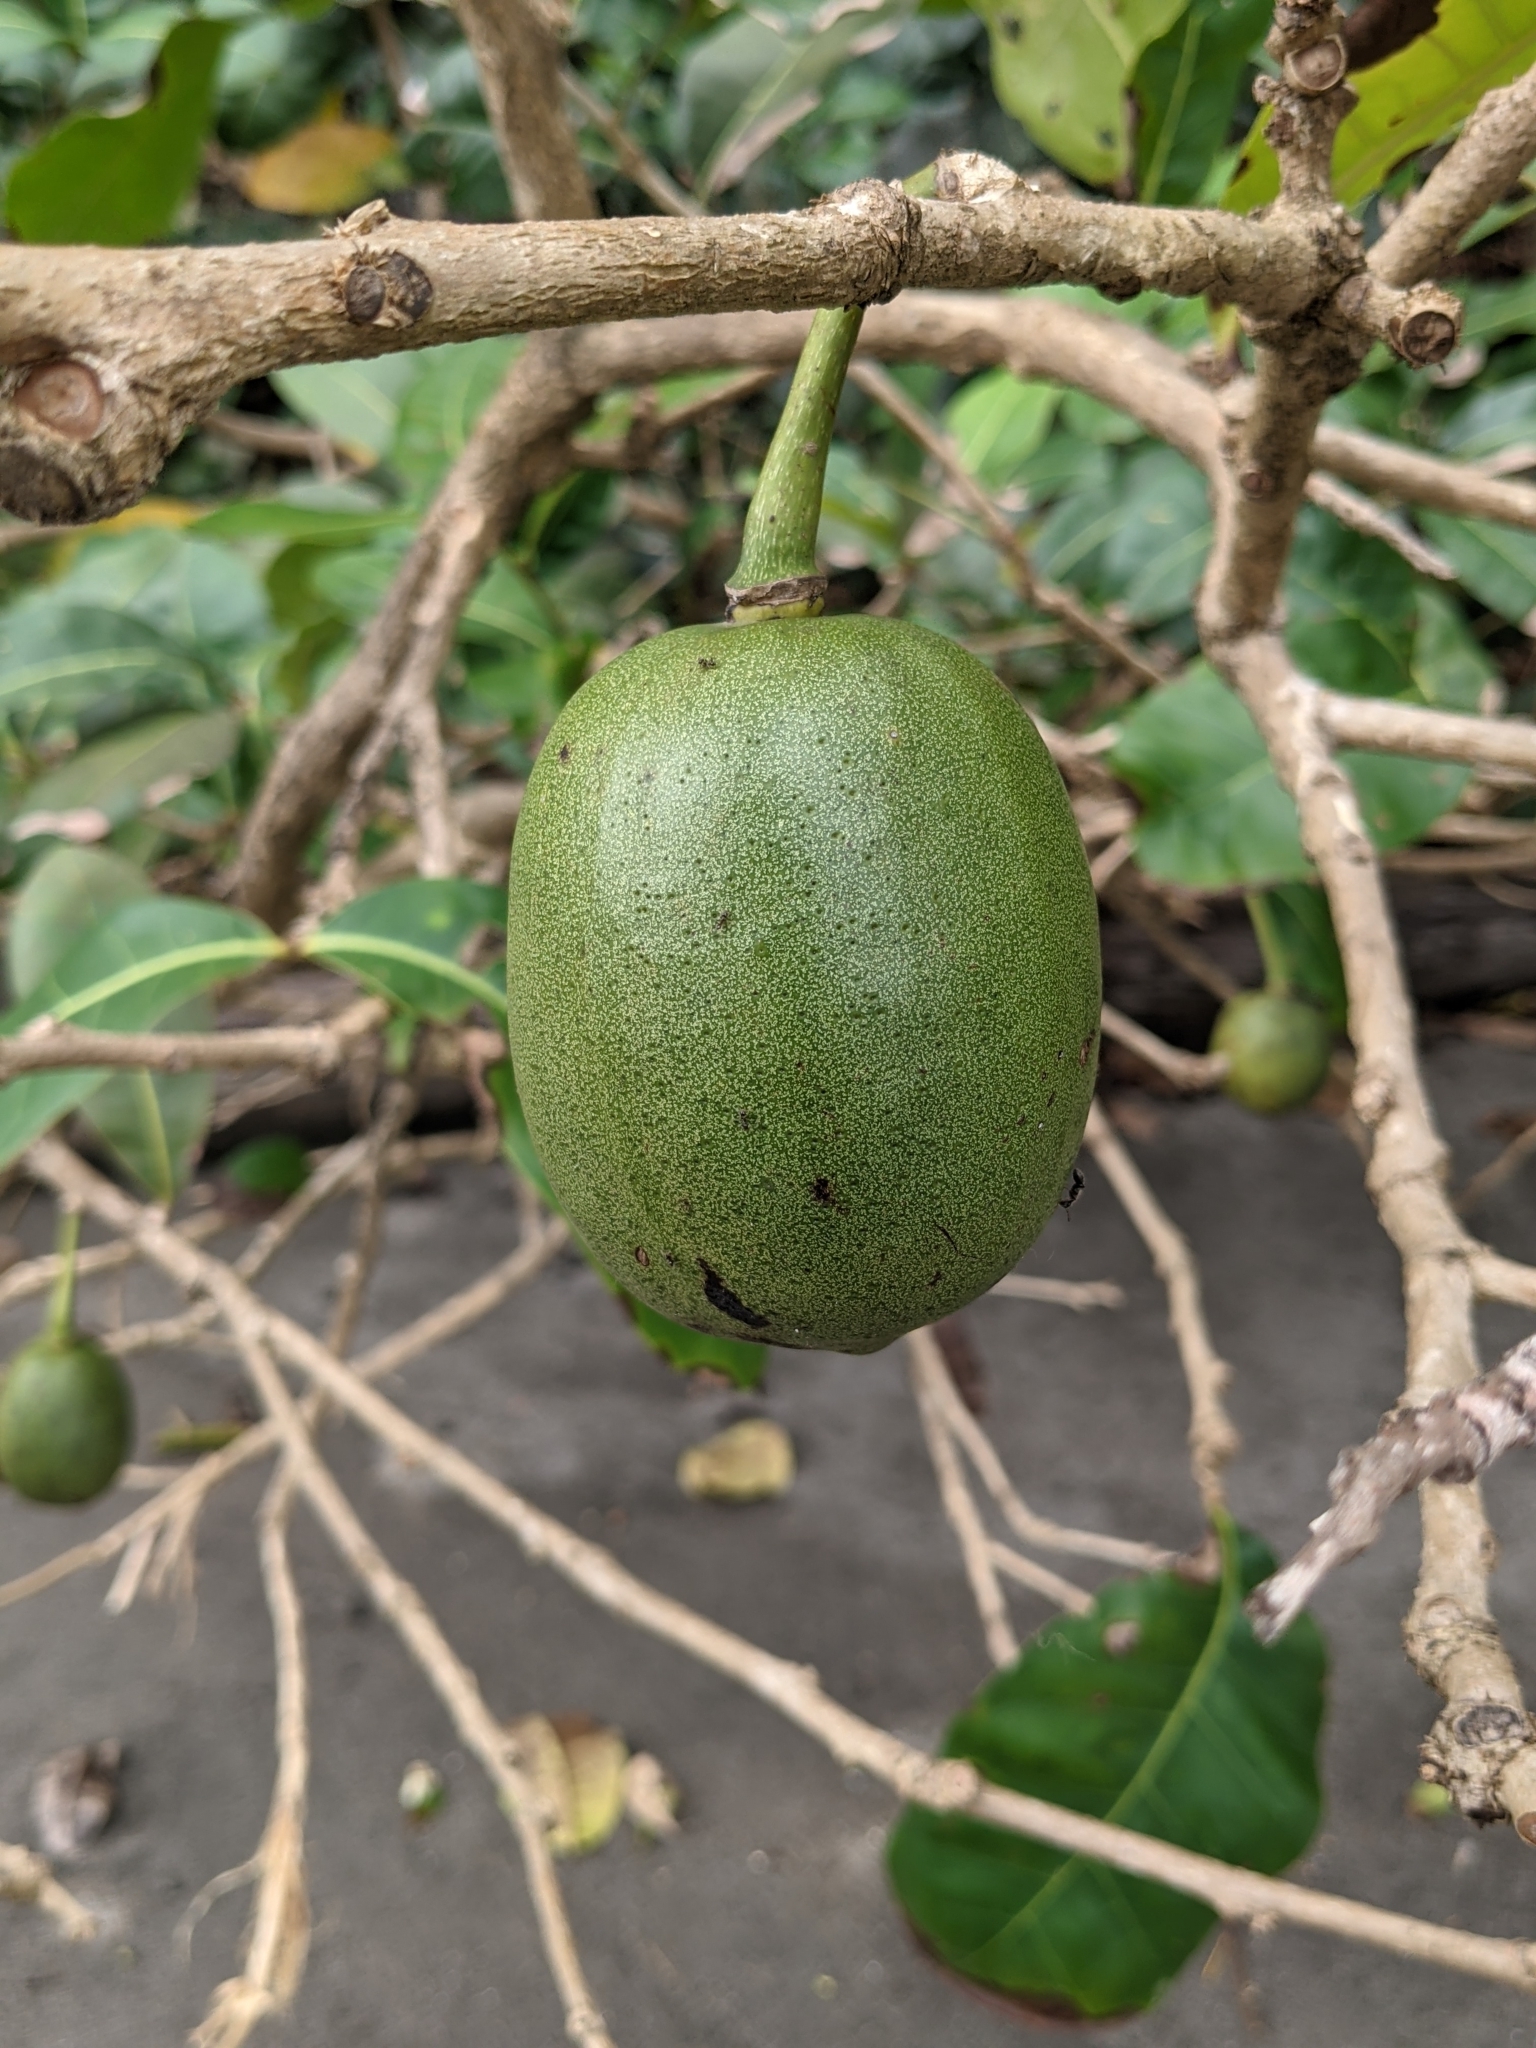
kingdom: Plantae
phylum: Tracheophyta
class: Magnoliopsida
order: Lamiales
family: Bignoniaceae
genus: Amphitecna
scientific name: Amphitecna latifolia
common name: Black-calabash
